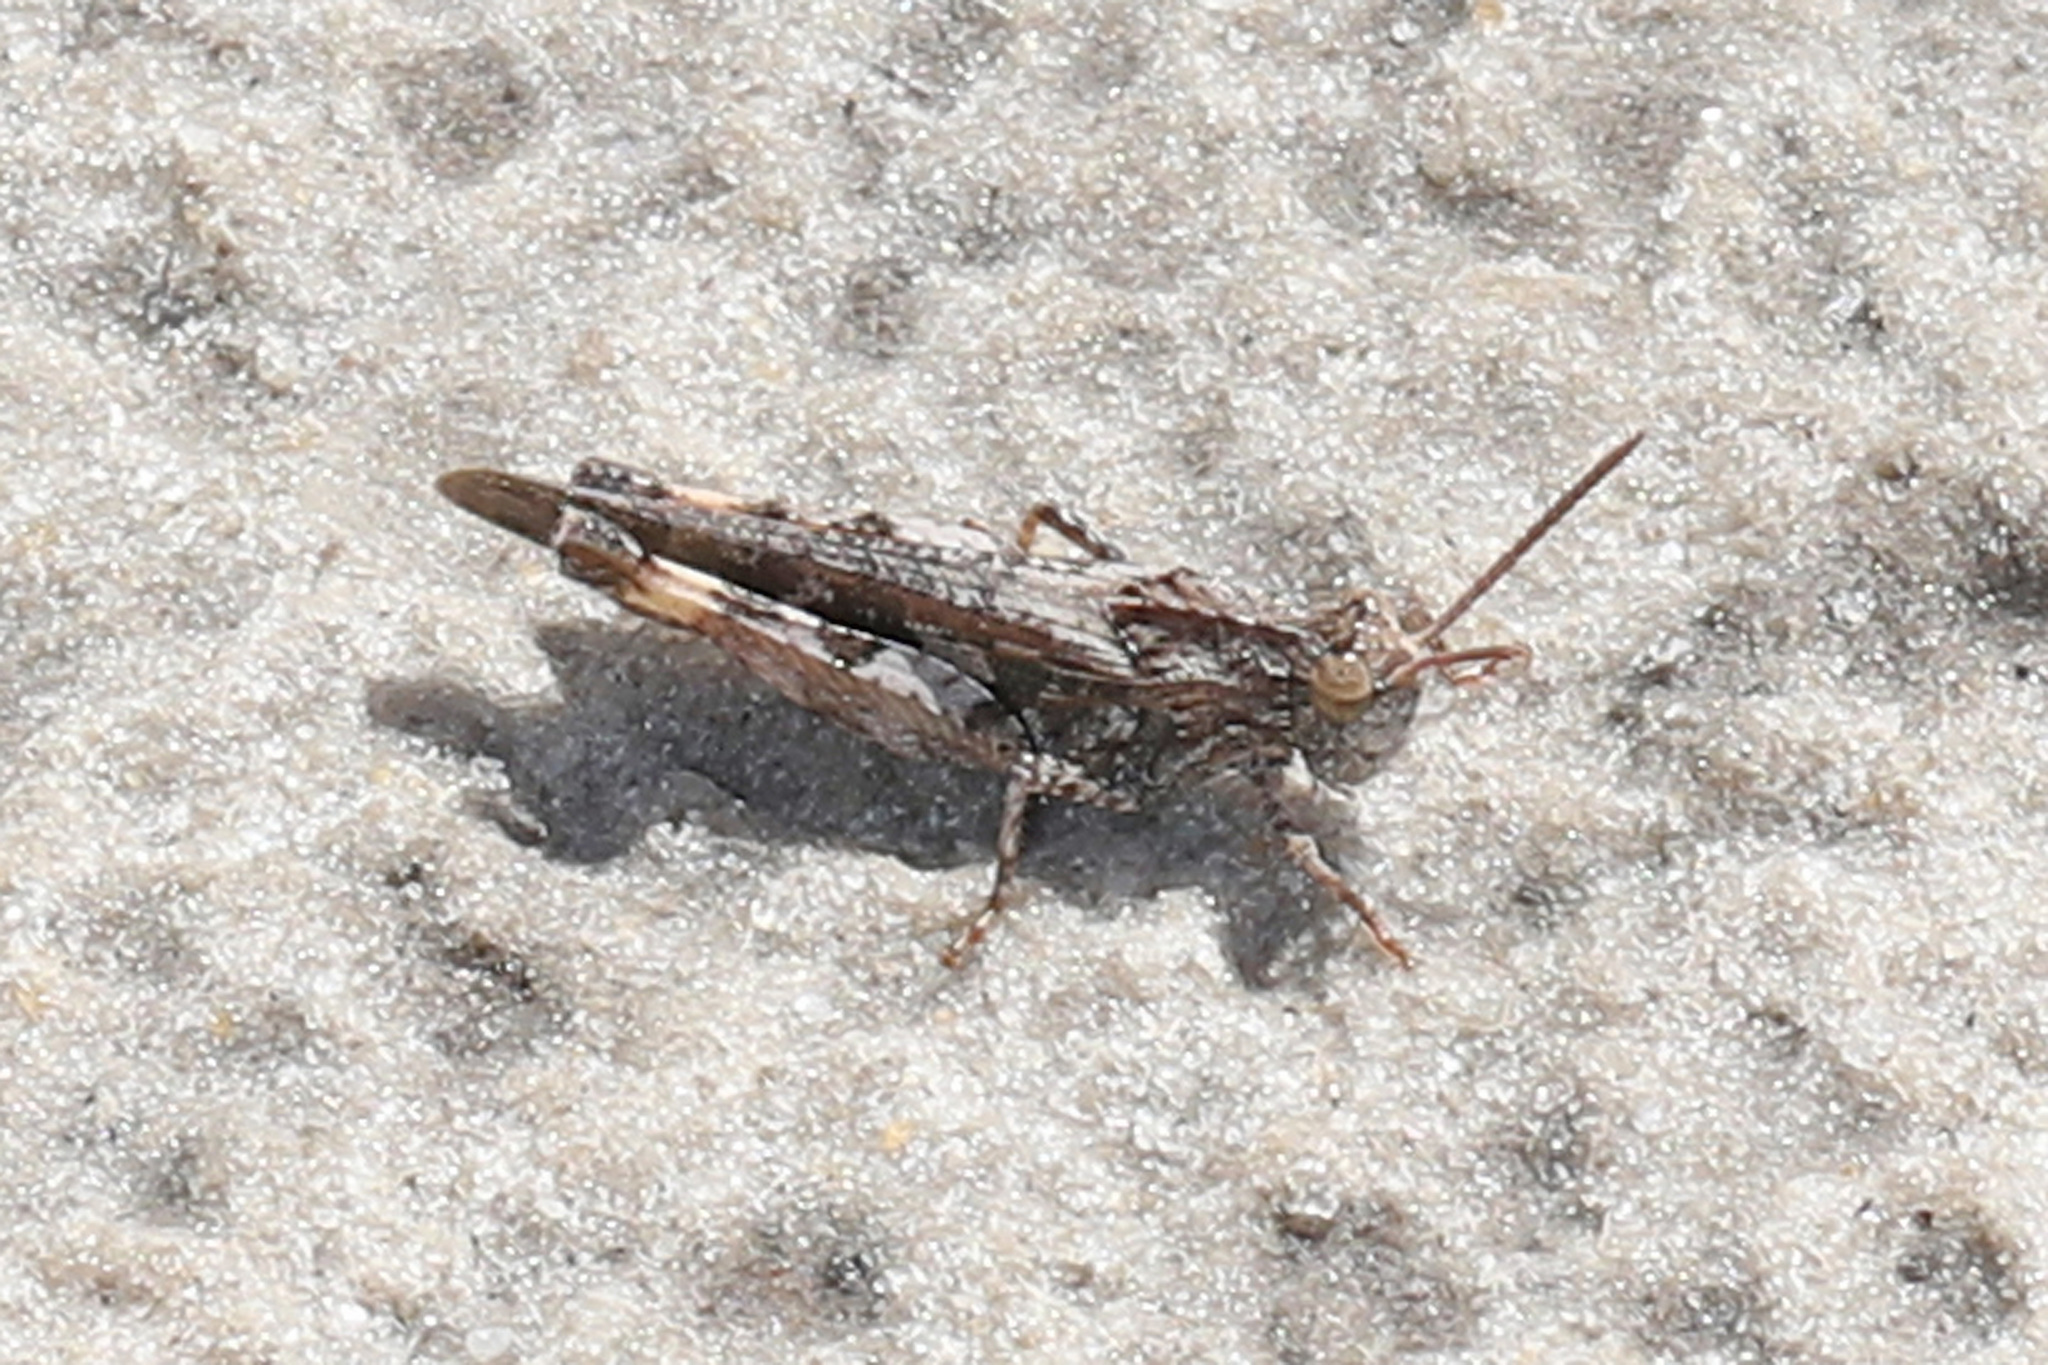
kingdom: Animalia
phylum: Arthropoda
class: Insecta
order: Orthoptera
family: Acrididae
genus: Chortophaga
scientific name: Chortophaga australior
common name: Southern green-striped grasshopper
